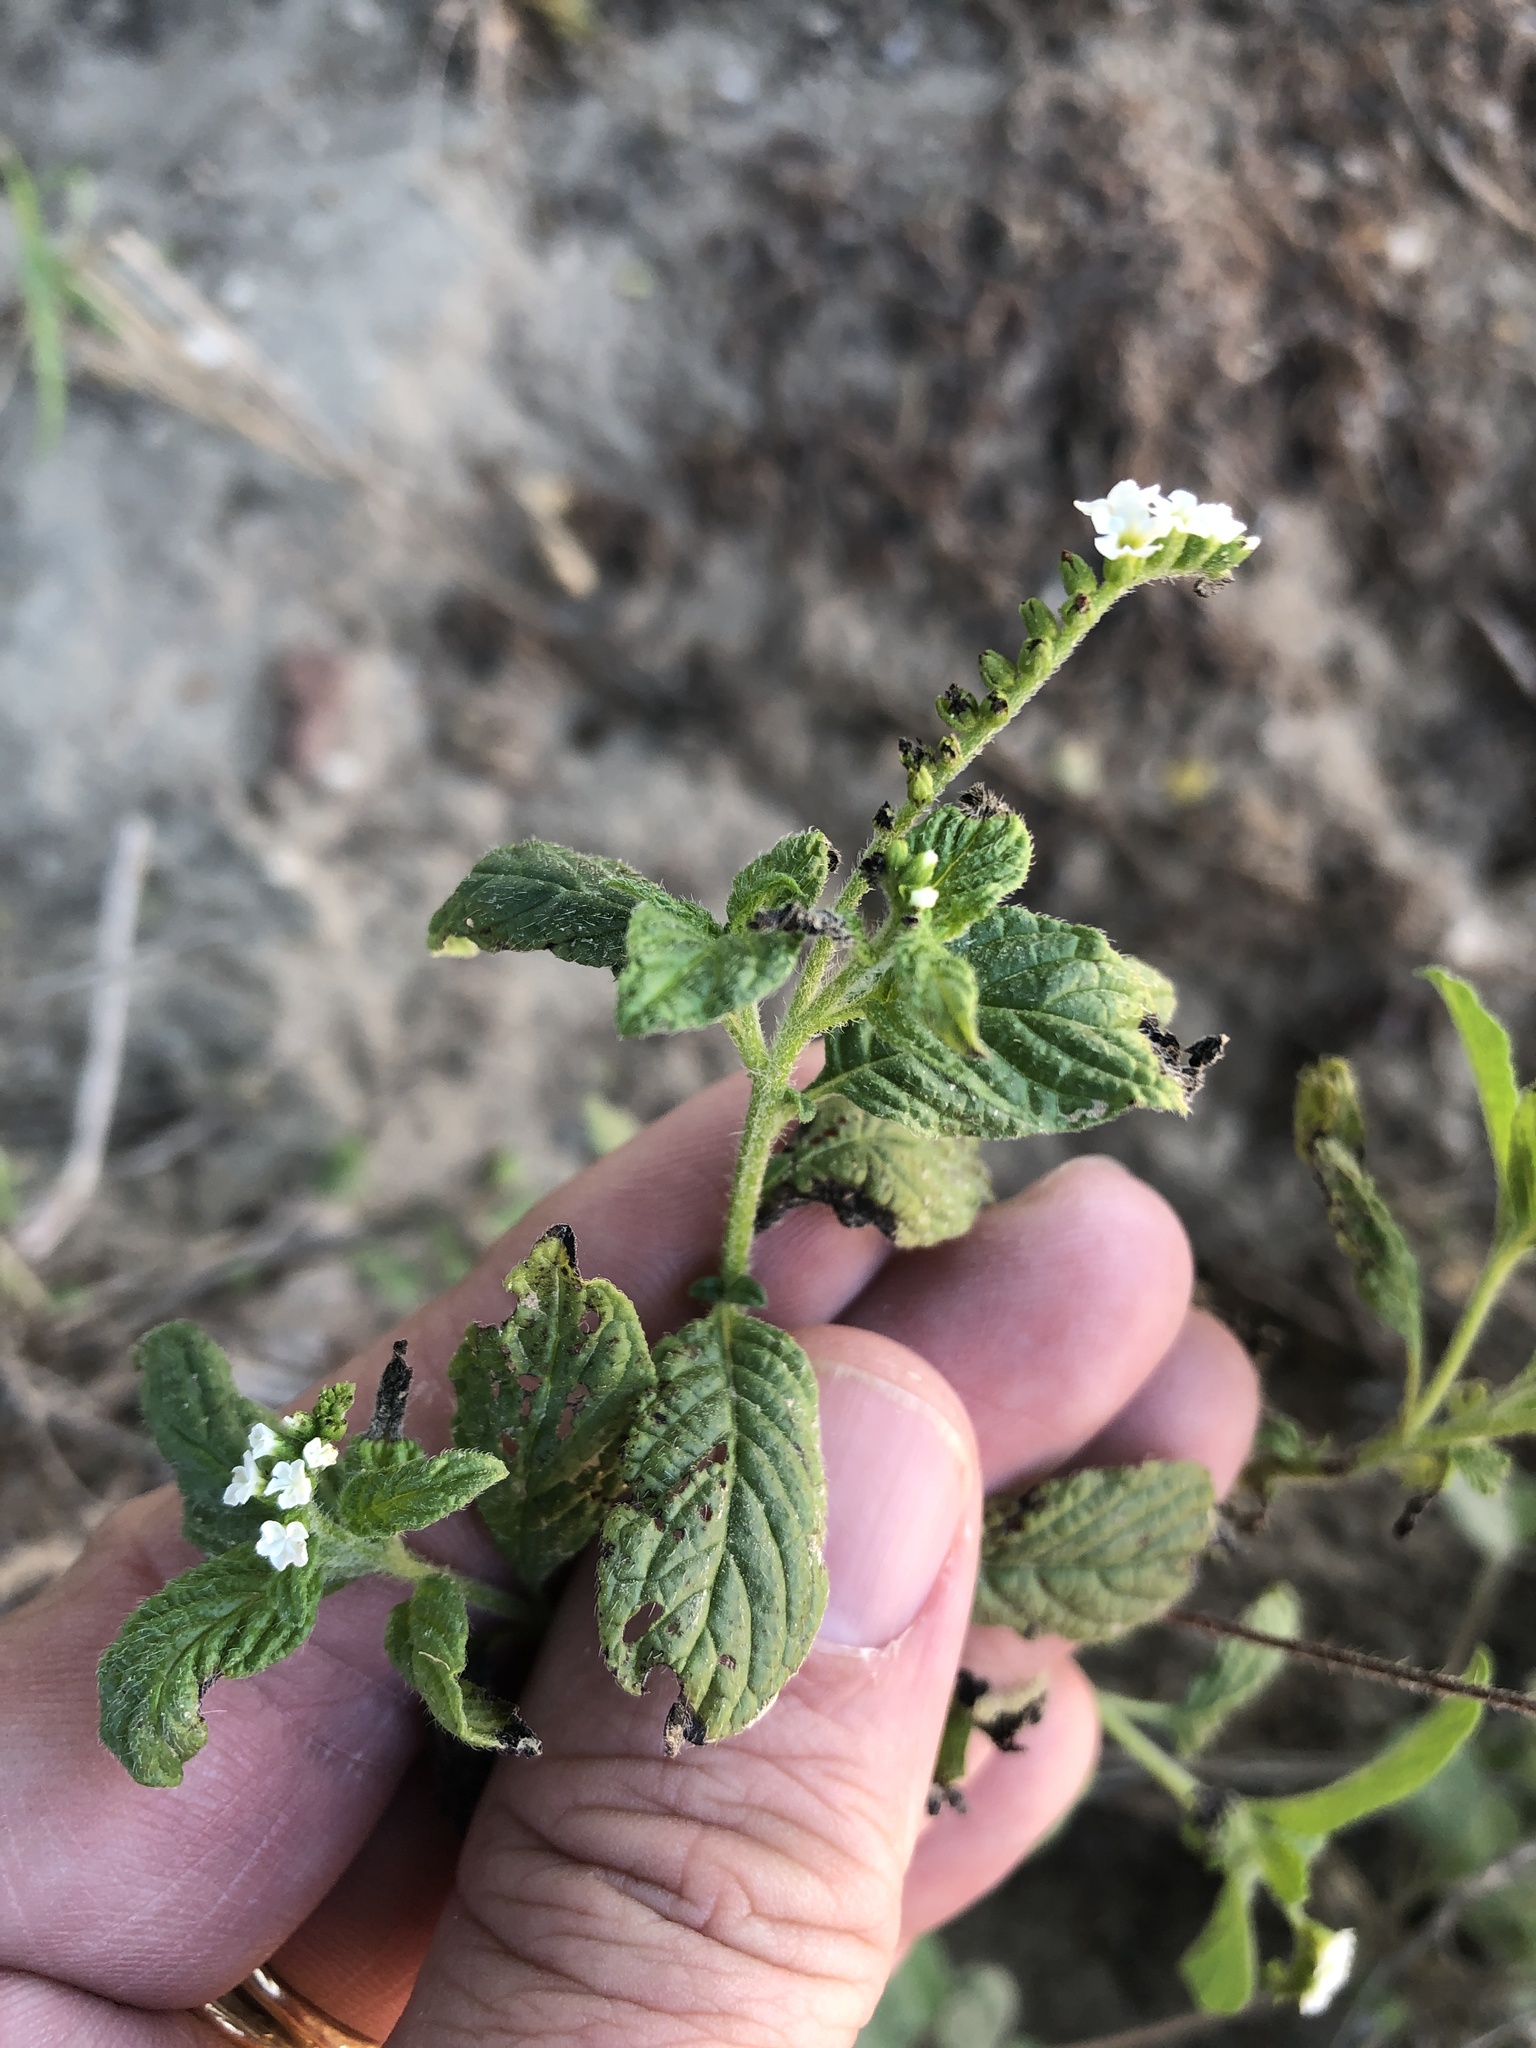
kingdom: Plantae
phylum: Tracheophyta
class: Magnoliopsida
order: Boraginales
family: Heliotropiaceae
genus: Heliotropium
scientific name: Heliotropium angiospermum
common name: Eye bright
